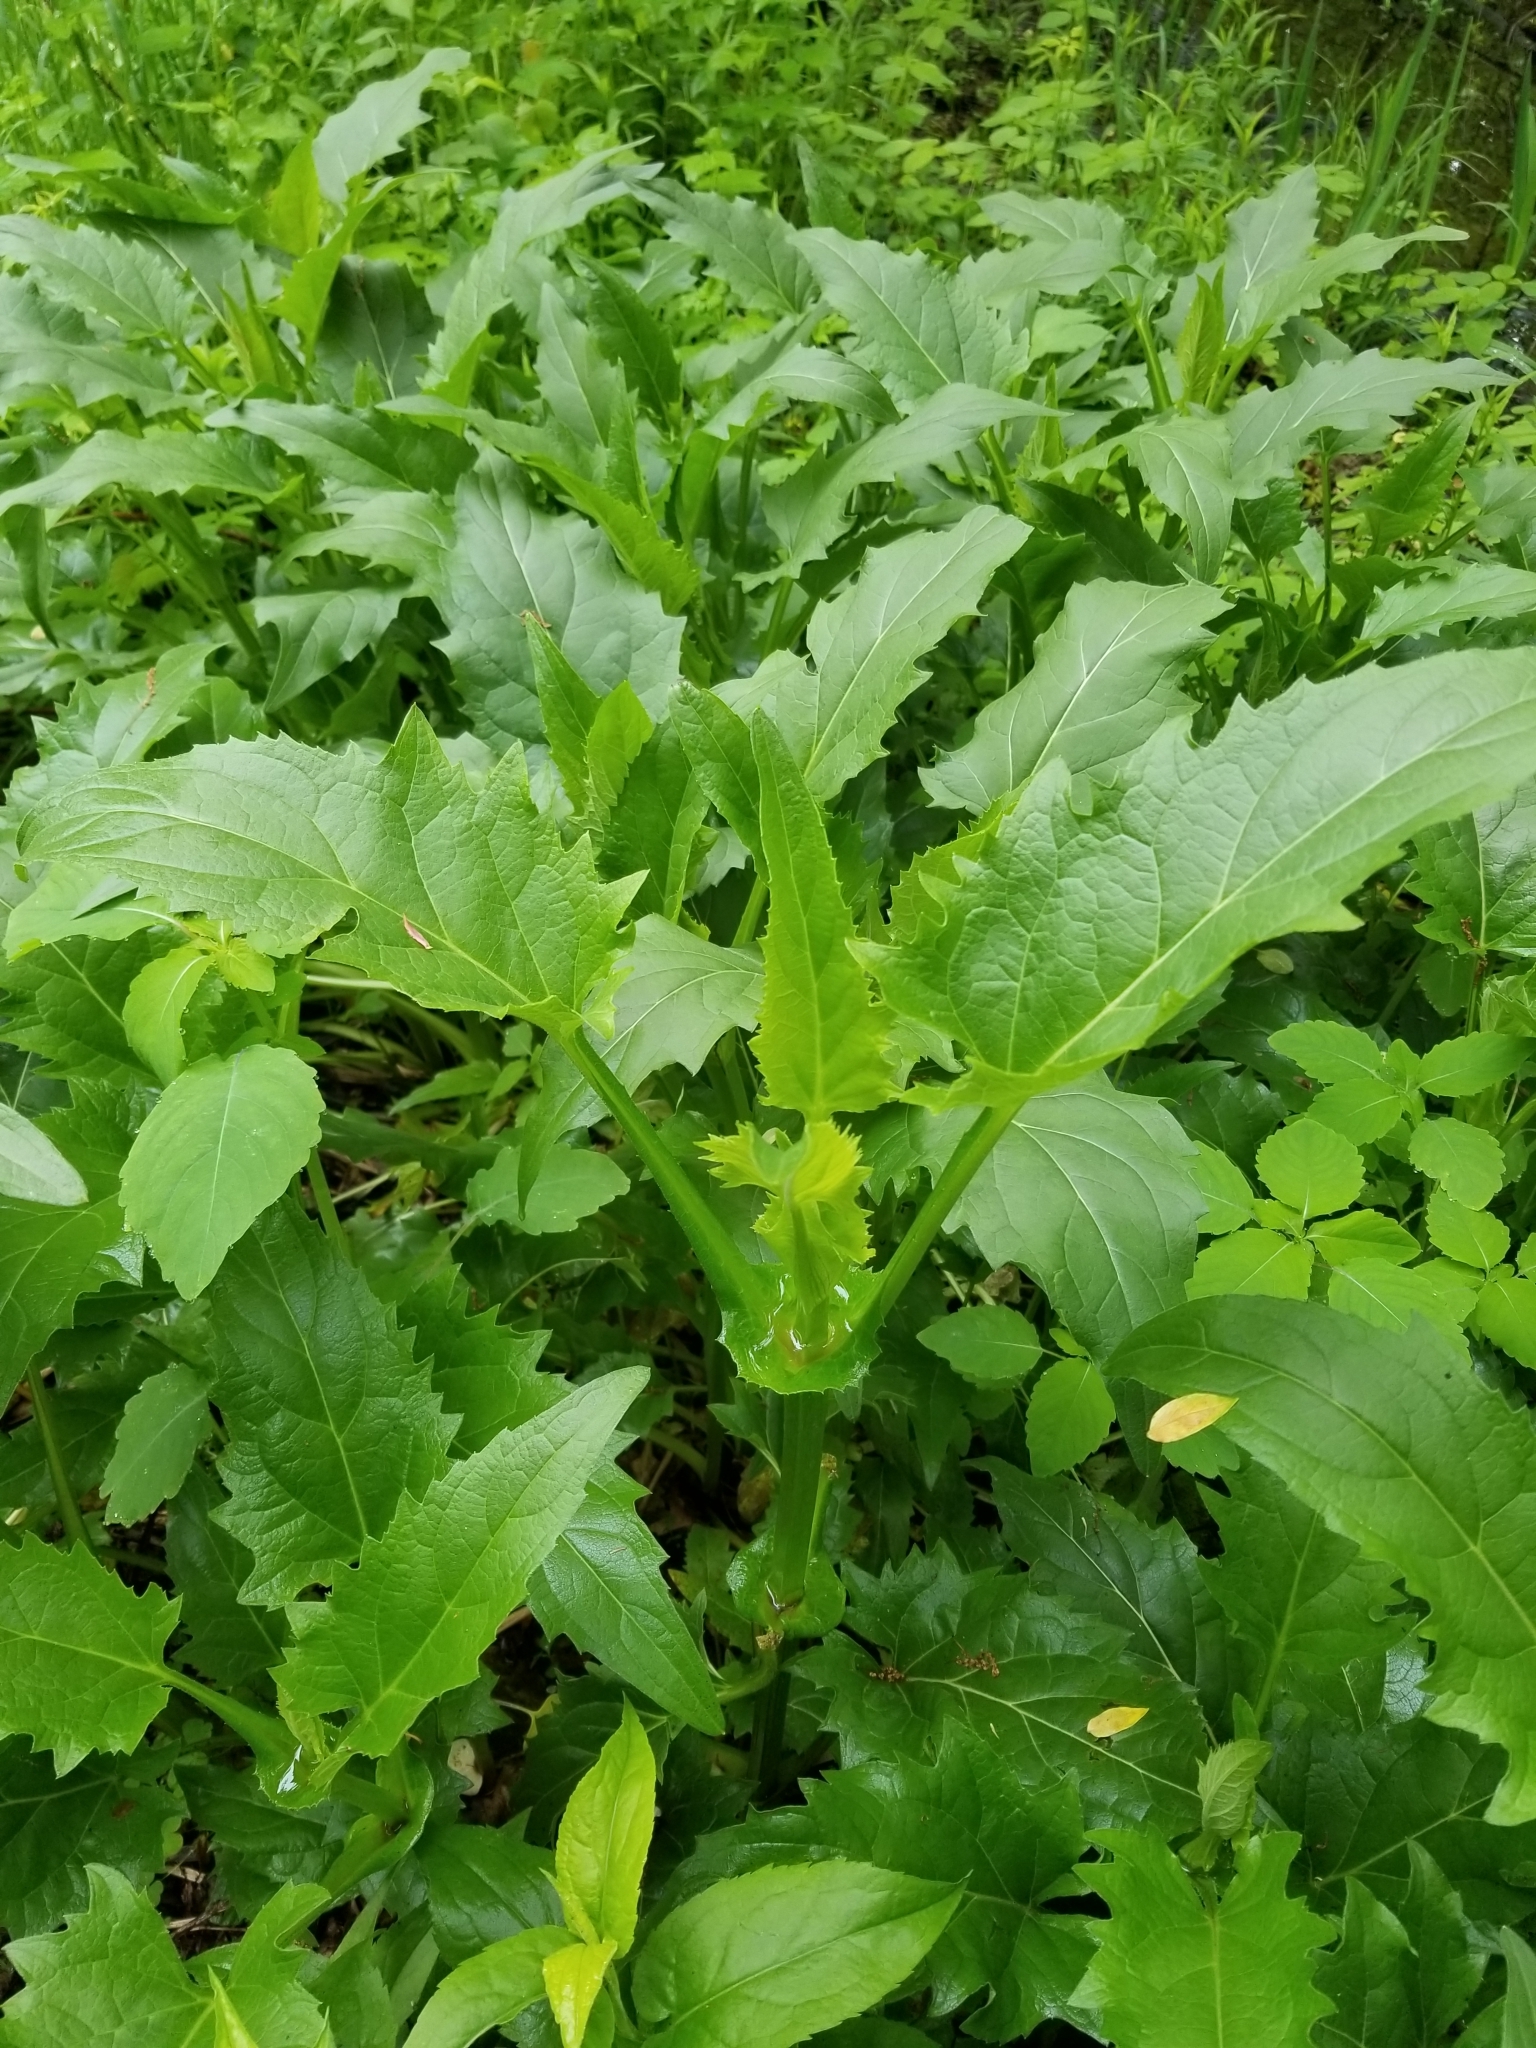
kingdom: Plantae
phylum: Tracheophyta
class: Magnoliopsida
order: Asterales
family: Asteraceae
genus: Silphium
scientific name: Silphium perfoliatum
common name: Cup-plant
